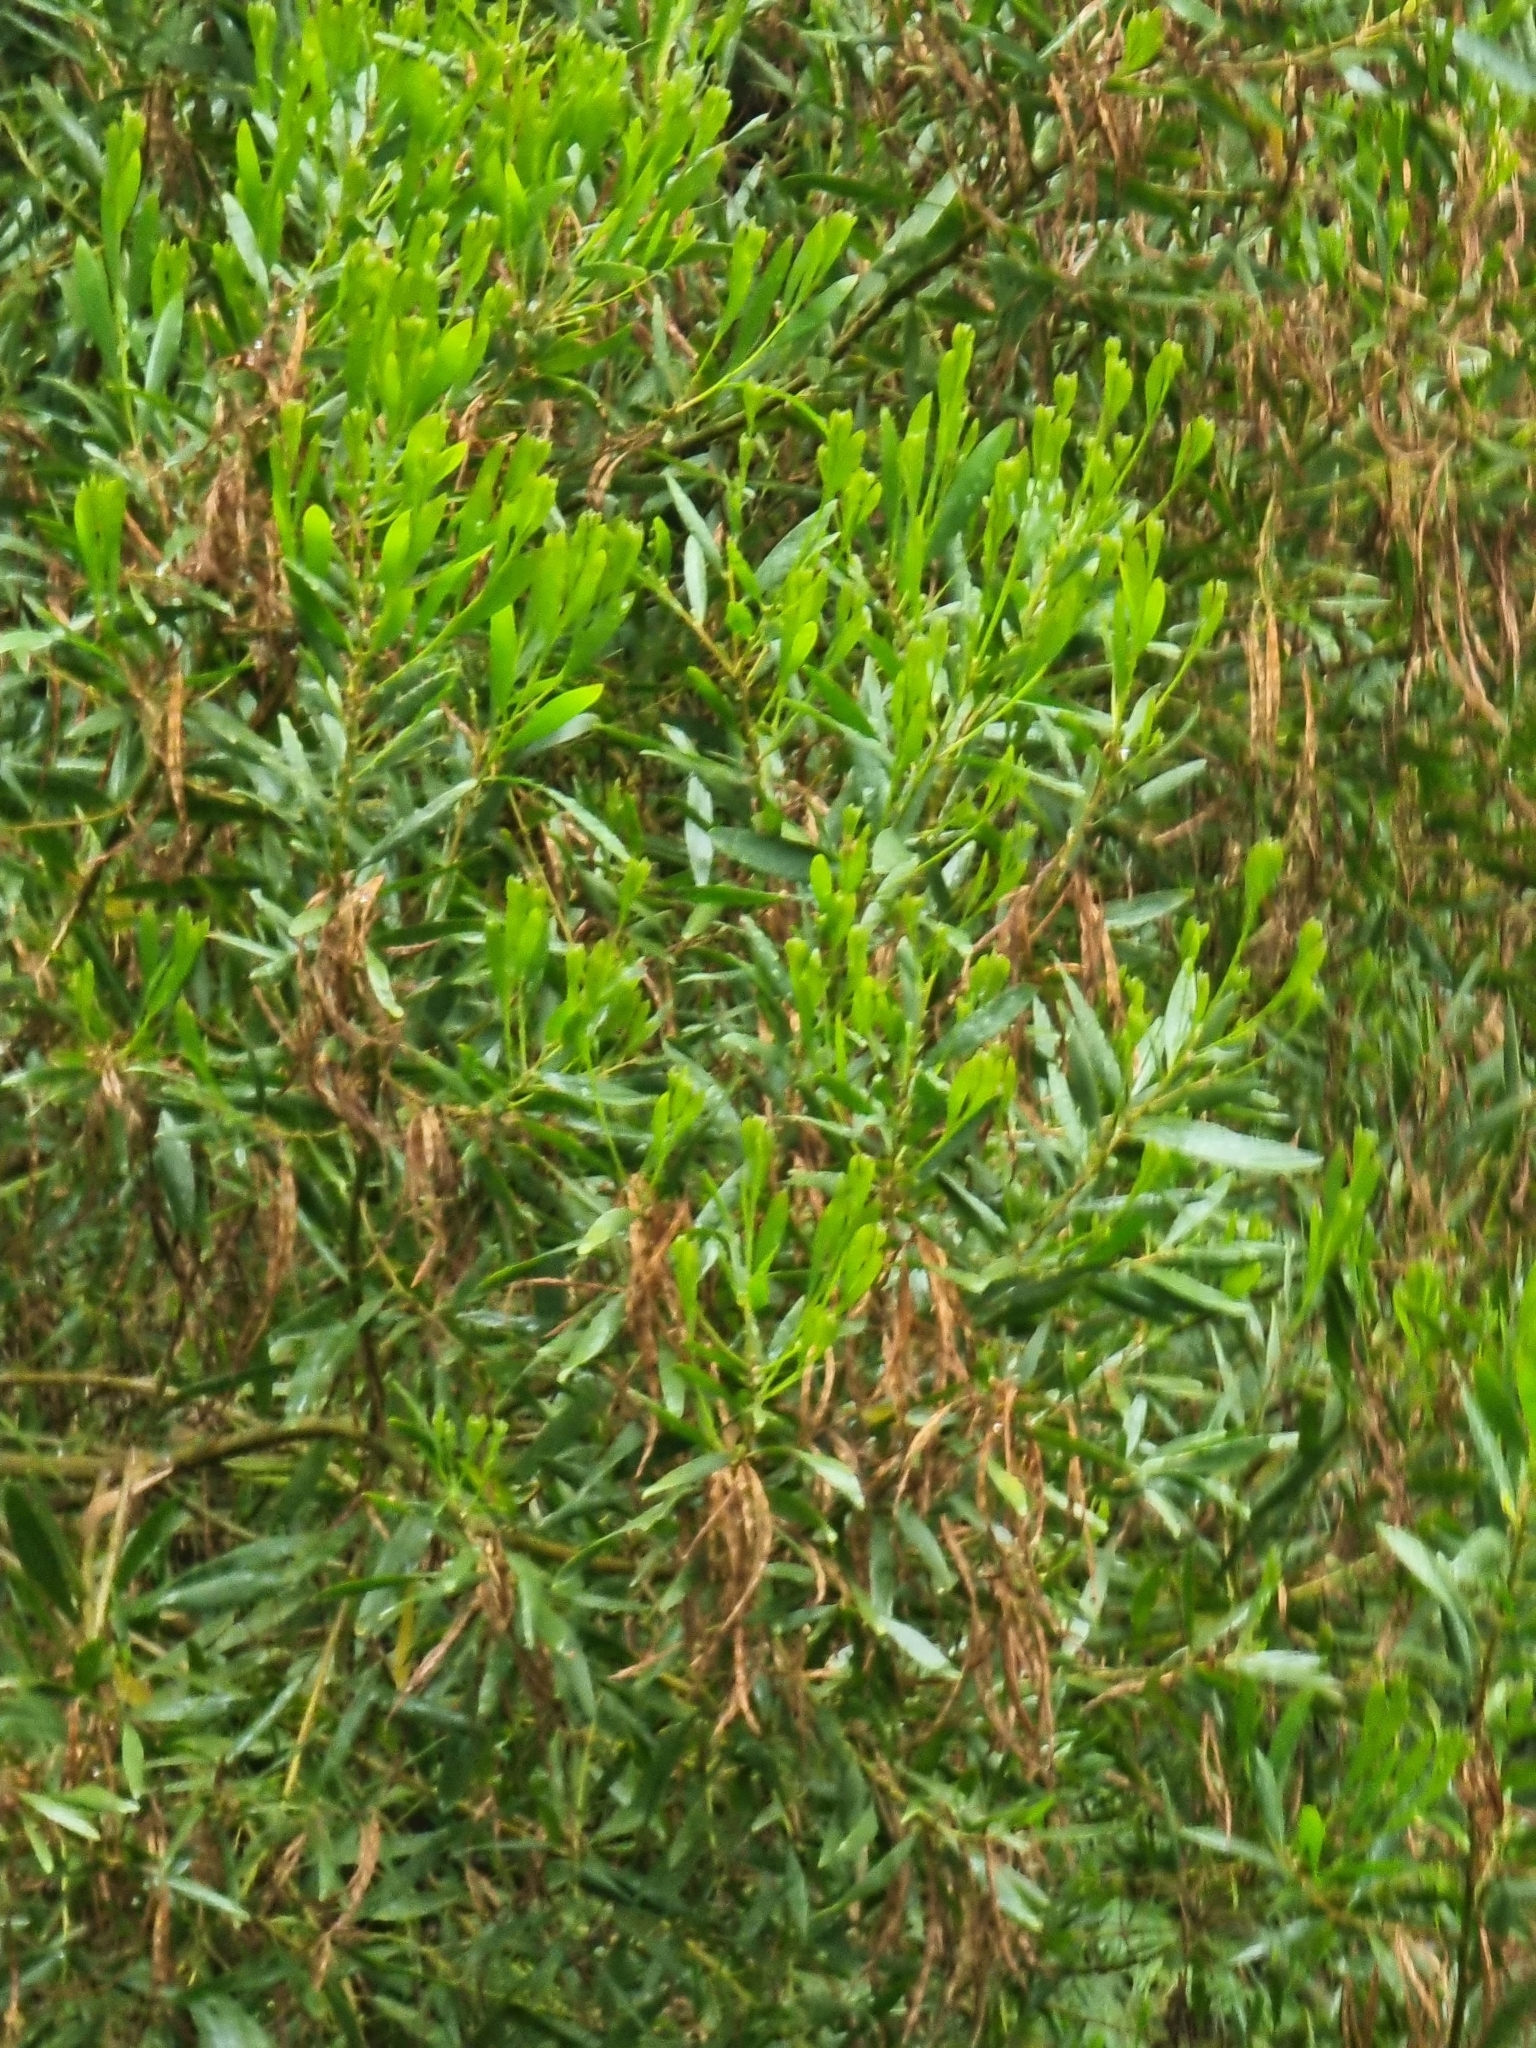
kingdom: Plantae
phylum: Tracheophyta
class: Magnoliopsida
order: Fabales
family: Fabaceae
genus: Acacia
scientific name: Acacia longifolia
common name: Sydney golden wattle
